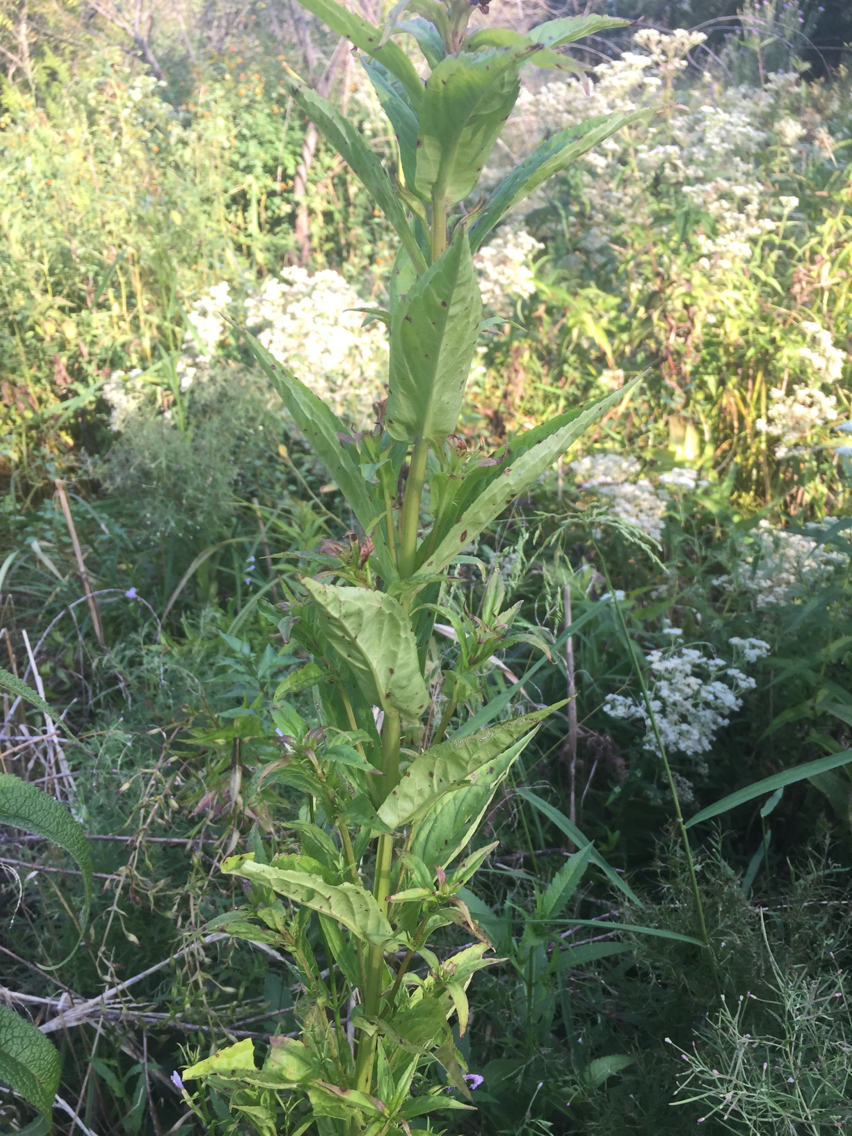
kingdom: Plantae
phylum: Tracheophyta
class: Magnoliopsida
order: Lamiales
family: Phrymaceae
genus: Mimulus
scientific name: Mimulus ringens
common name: Allegheny monkeyflower
